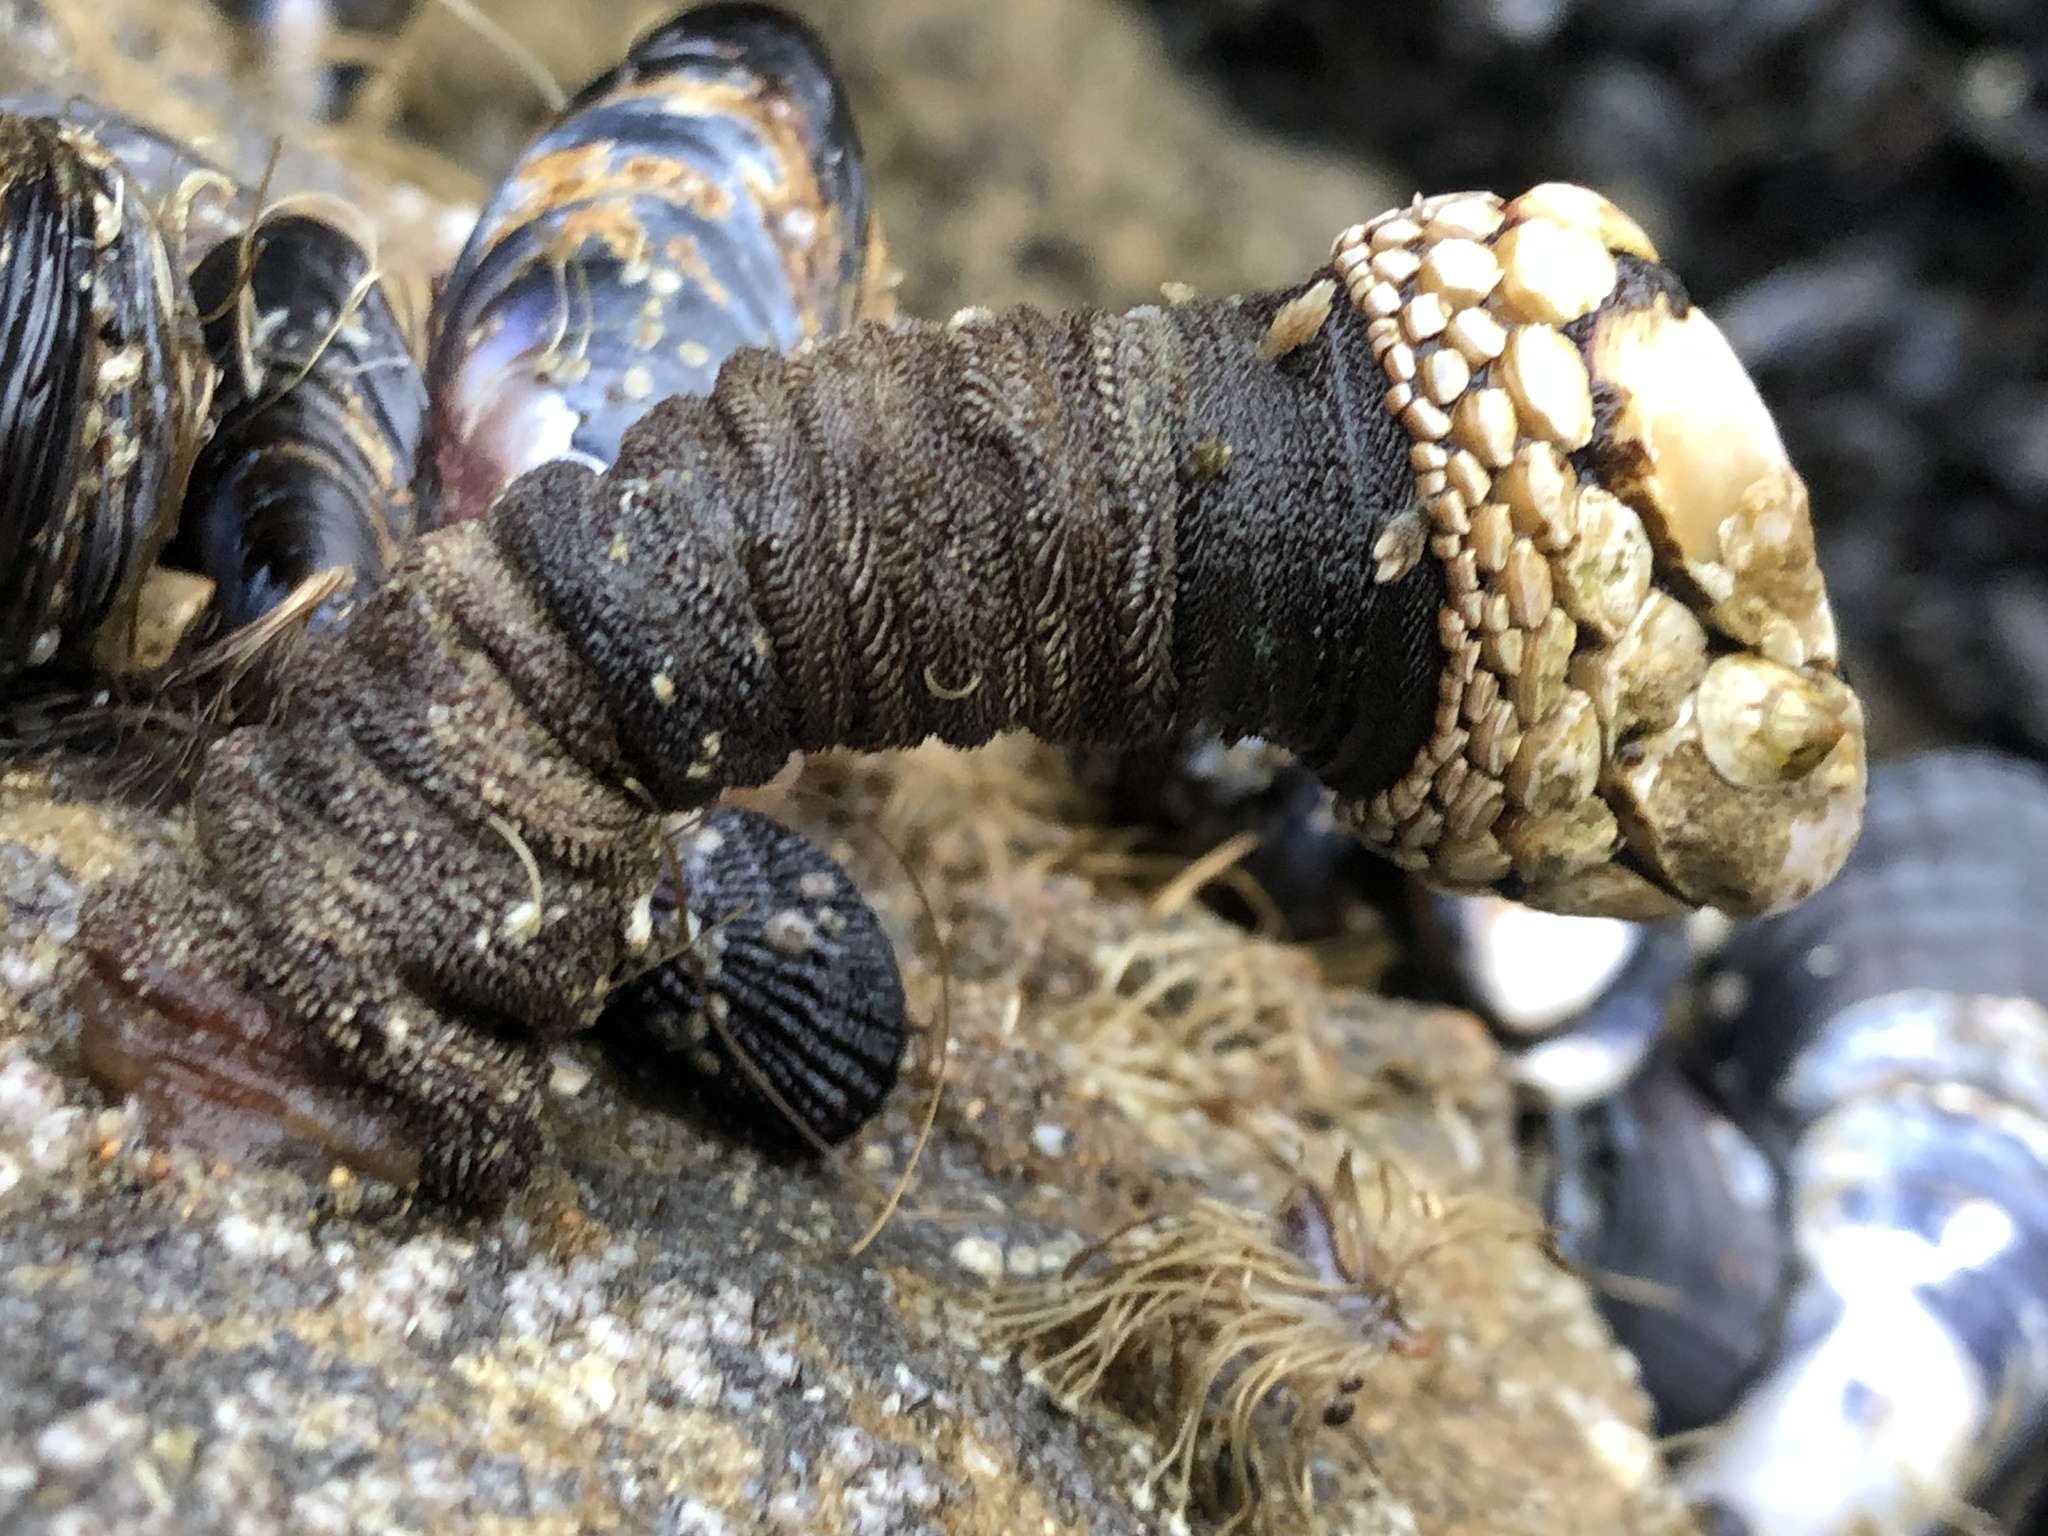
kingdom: Animalia
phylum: Arthropoda
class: Maxillopoda
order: Pedunculata
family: Pollicipedidae
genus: Pollicipes
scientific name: Pollicipes polymerus
